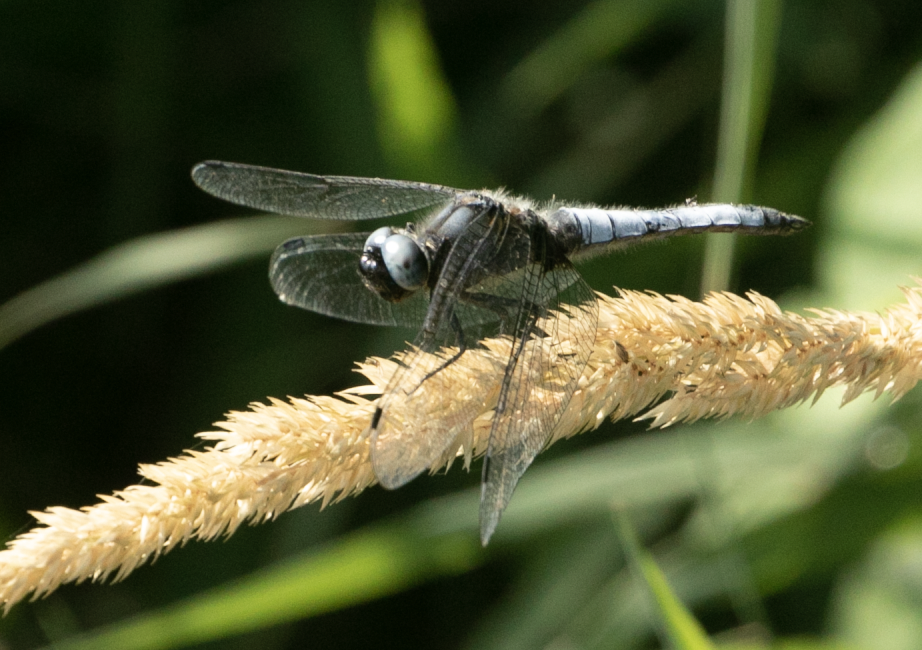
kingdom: Animalia
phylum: Arthropoda
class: Insecta
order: Odonata
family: Libellulidae
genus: Libellula
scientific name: Libellula fulva
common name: Blue chaser
